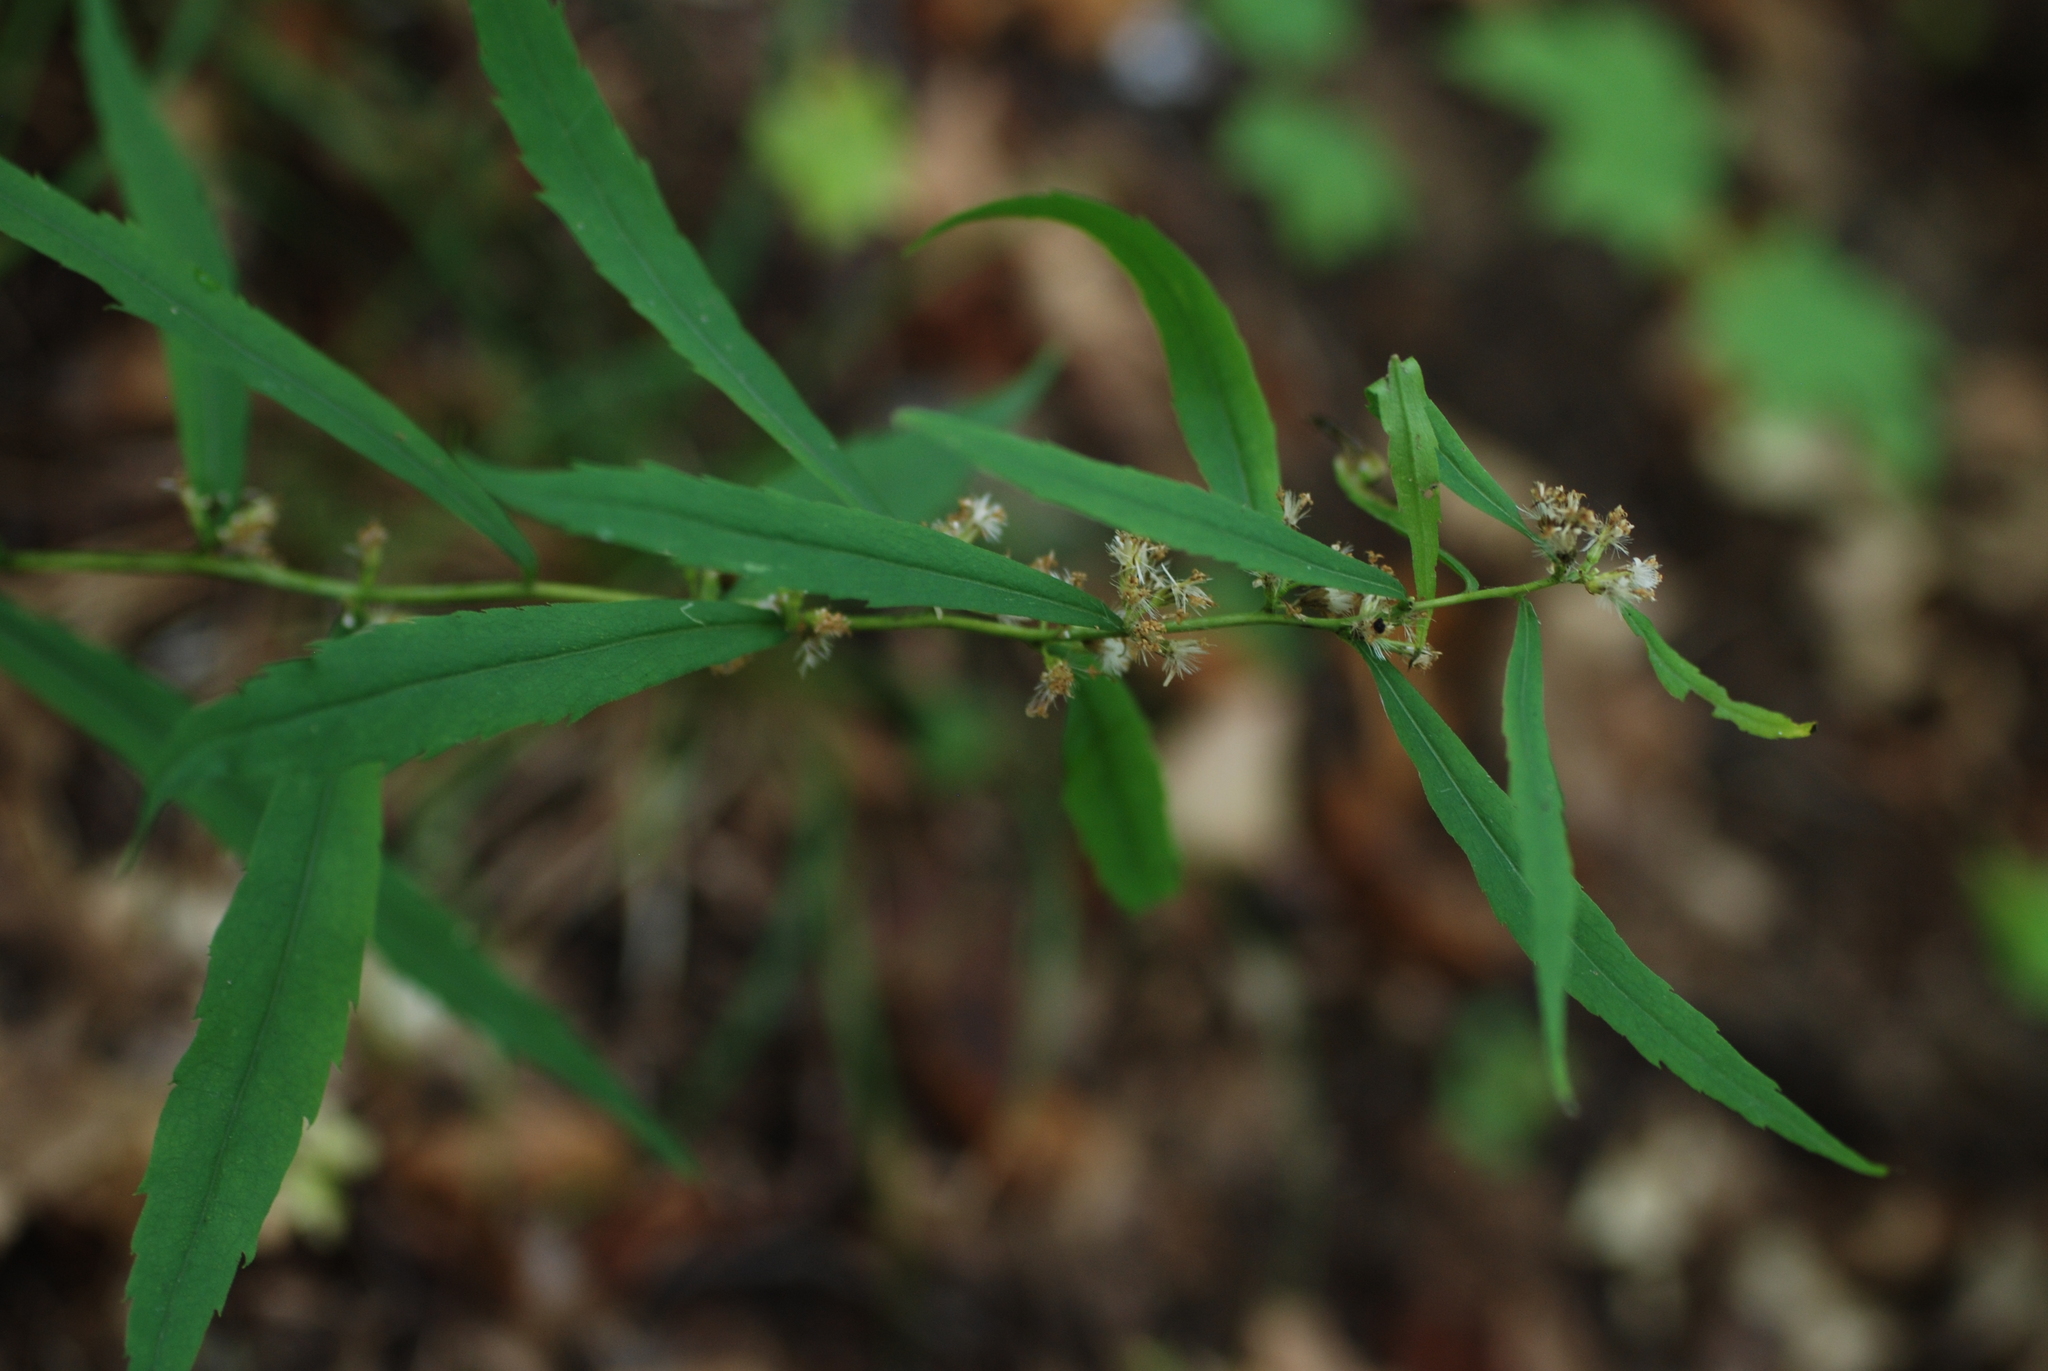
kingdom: Plantae
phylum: Tracheophyta
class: Magnoliopsida
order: Asterales
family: Asteraceae
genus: Solidago
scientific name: Solidago caesia
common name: Woodland goldenrod
